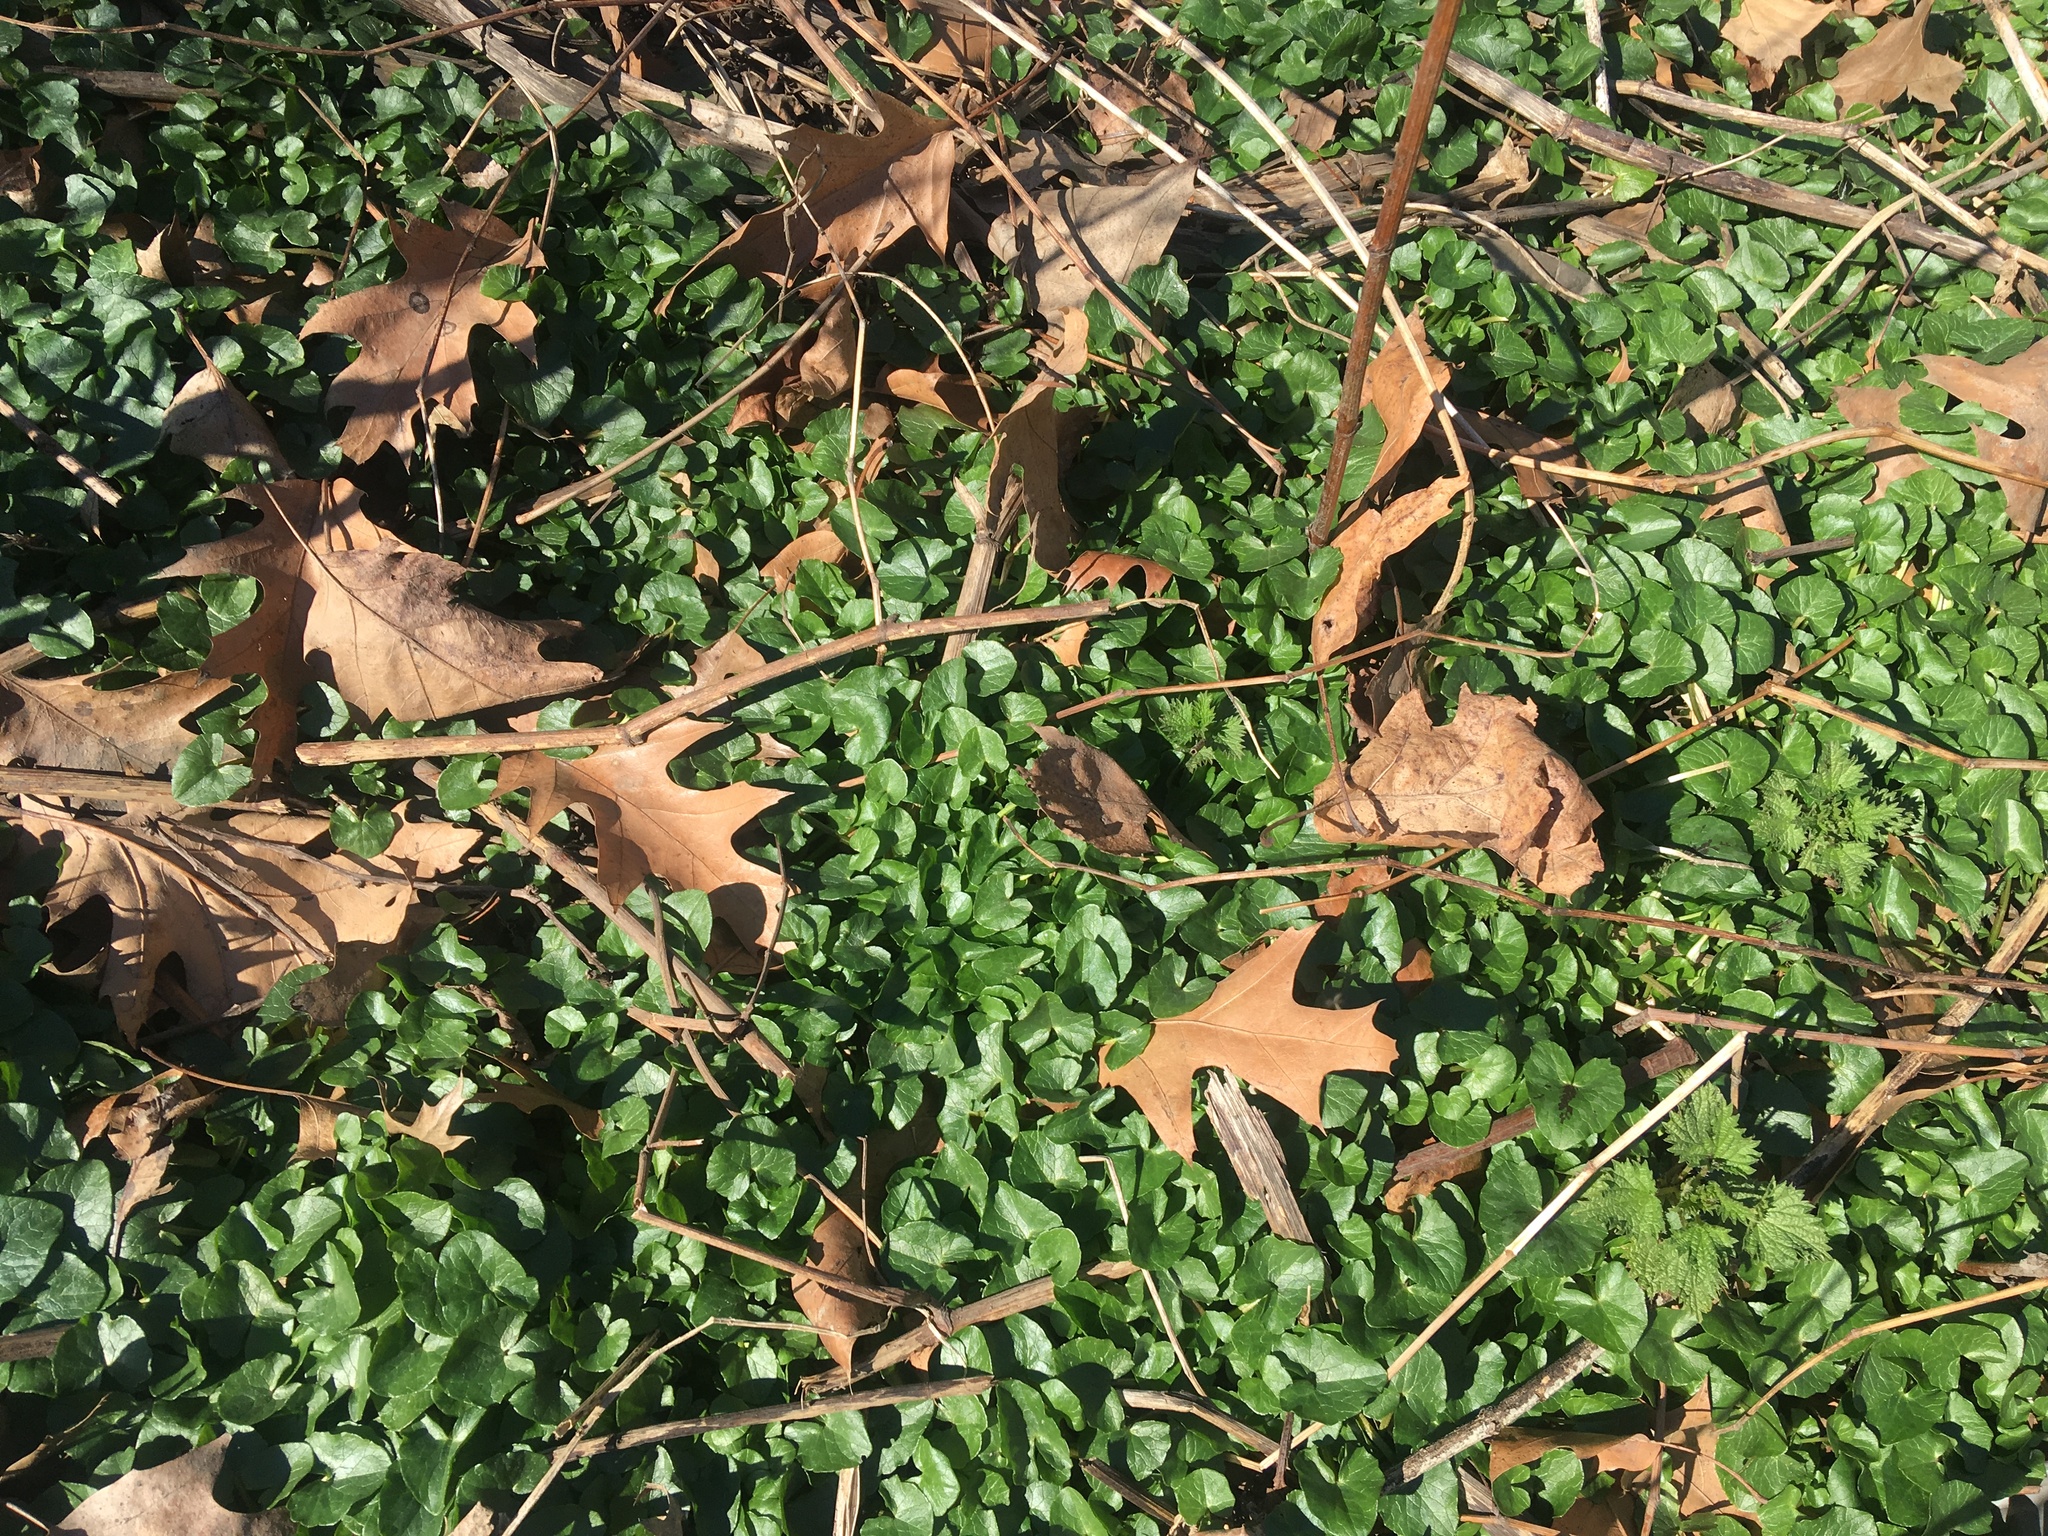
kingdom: Plantae
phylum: Tracheophyta
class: Magnoliopsida
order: Ranunculales
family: Ranunculaceae
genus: Ficaria
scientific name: Ficaria verna
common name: Lesser celandine
